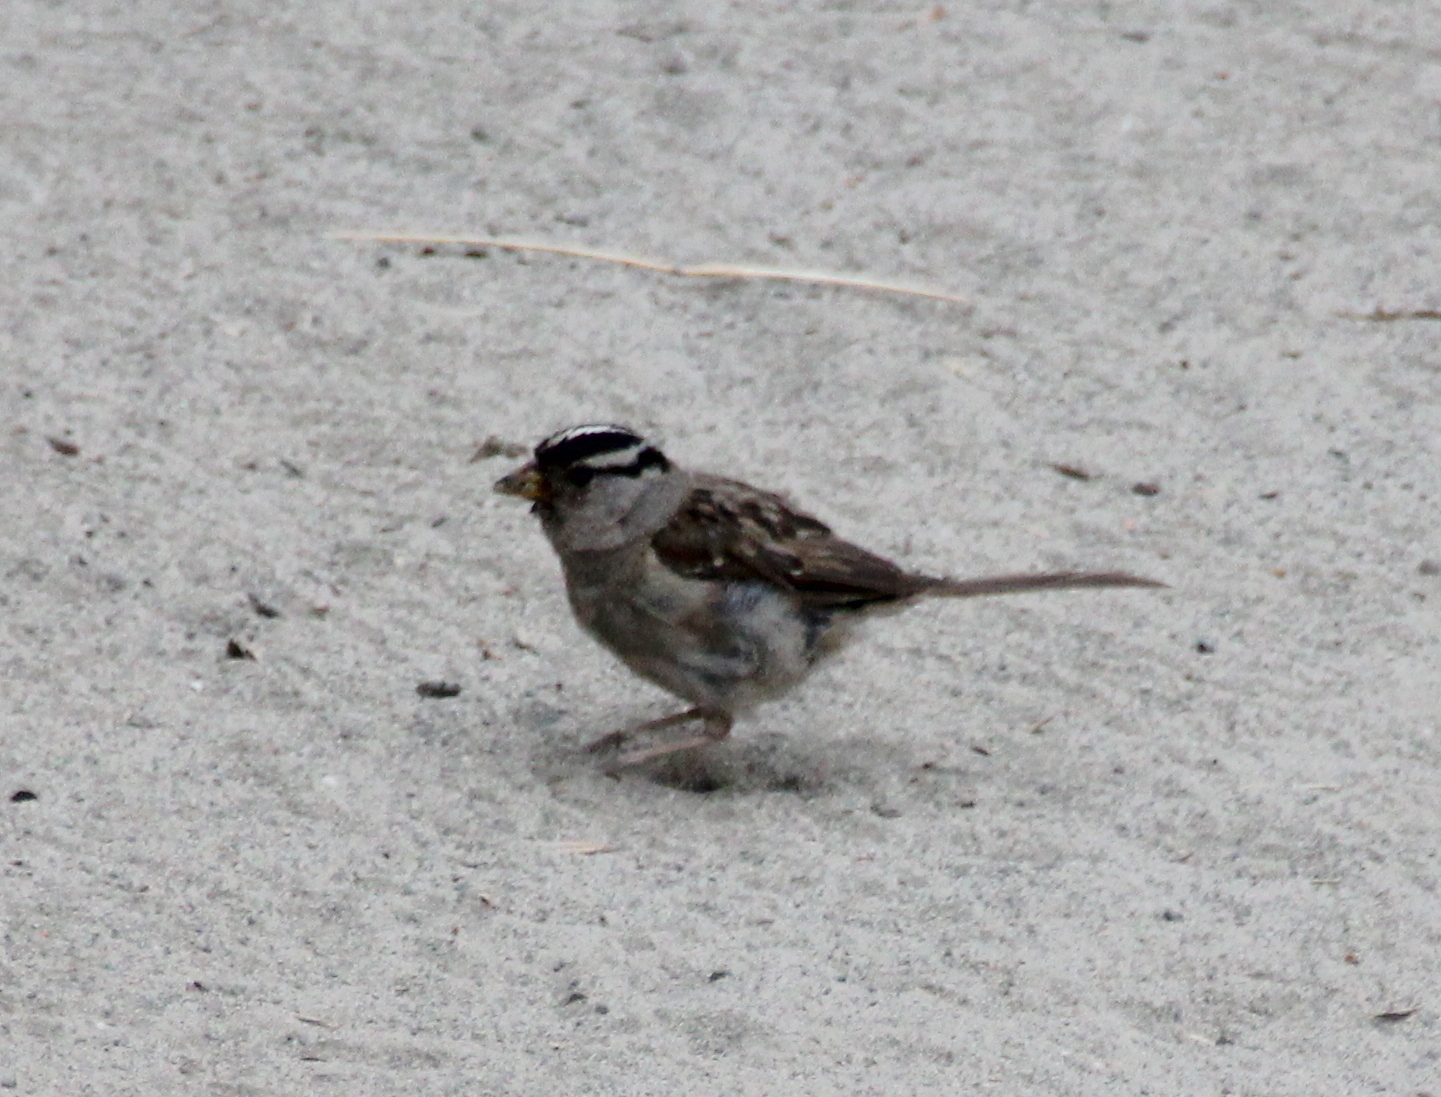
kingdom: Animalia
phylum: Chordata
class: Aves
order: Passeriformes
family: Passerellidae
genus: Zonotrichia
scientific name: Zonotrichia leucophrys
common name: White-crowned sparrow
